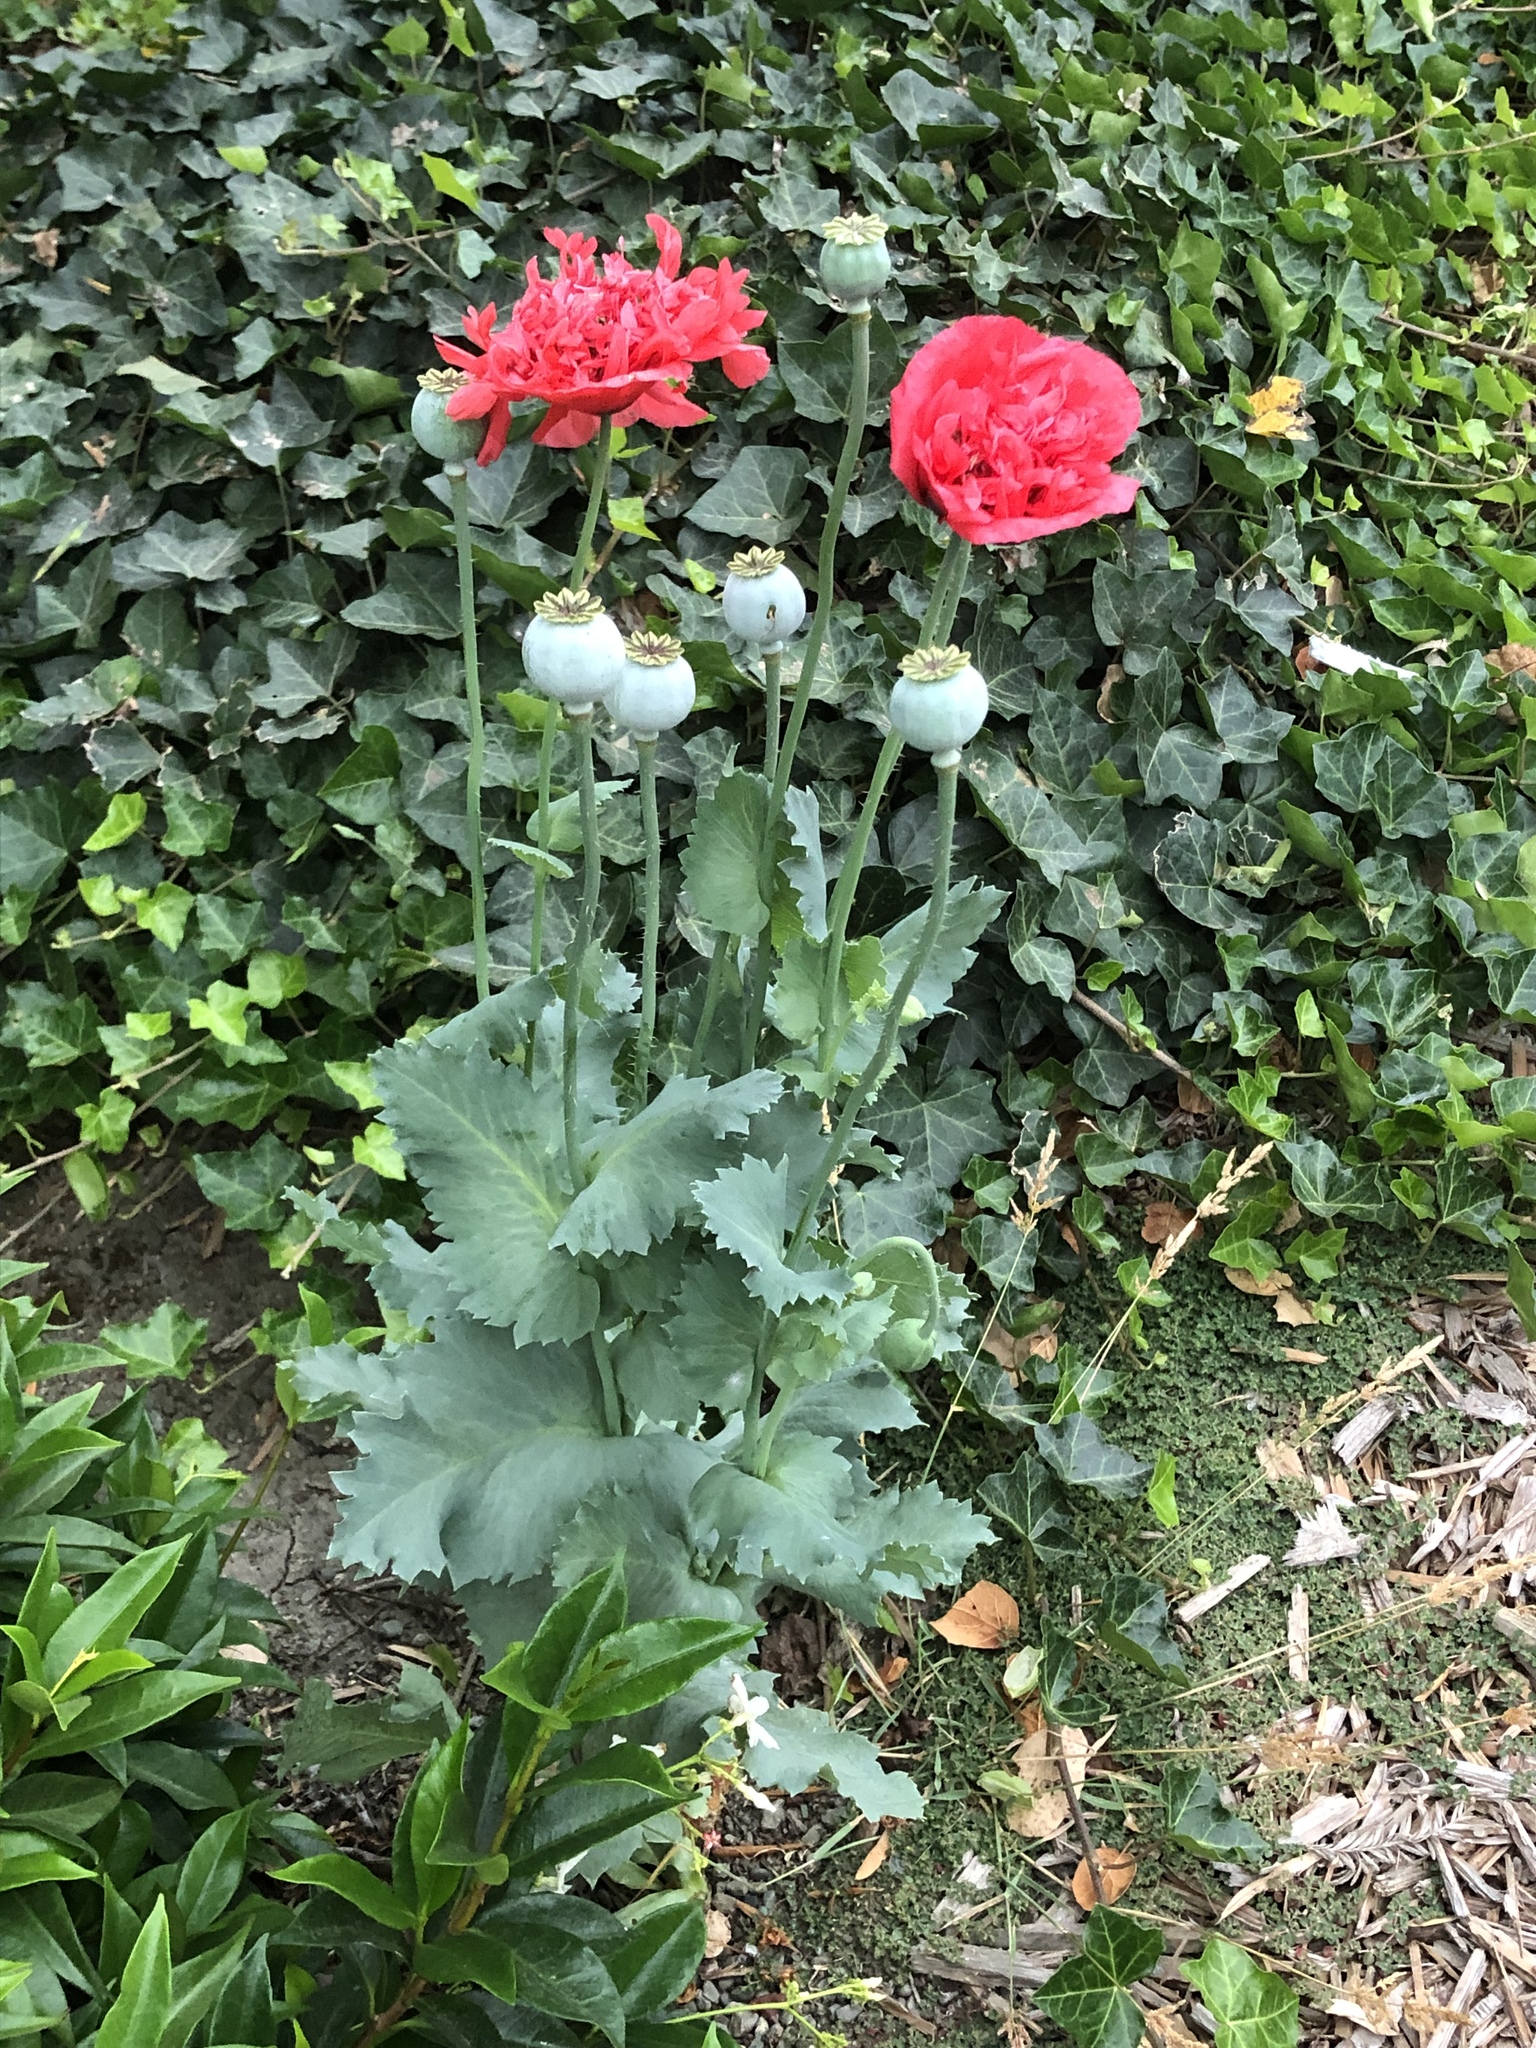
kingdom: Plantae
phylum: Tracheophyta
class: Magnoliopsida
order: Ranunculales
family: Papaveraceae
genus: Papaver
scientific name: Papaver somniferum
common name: Opium poppy
